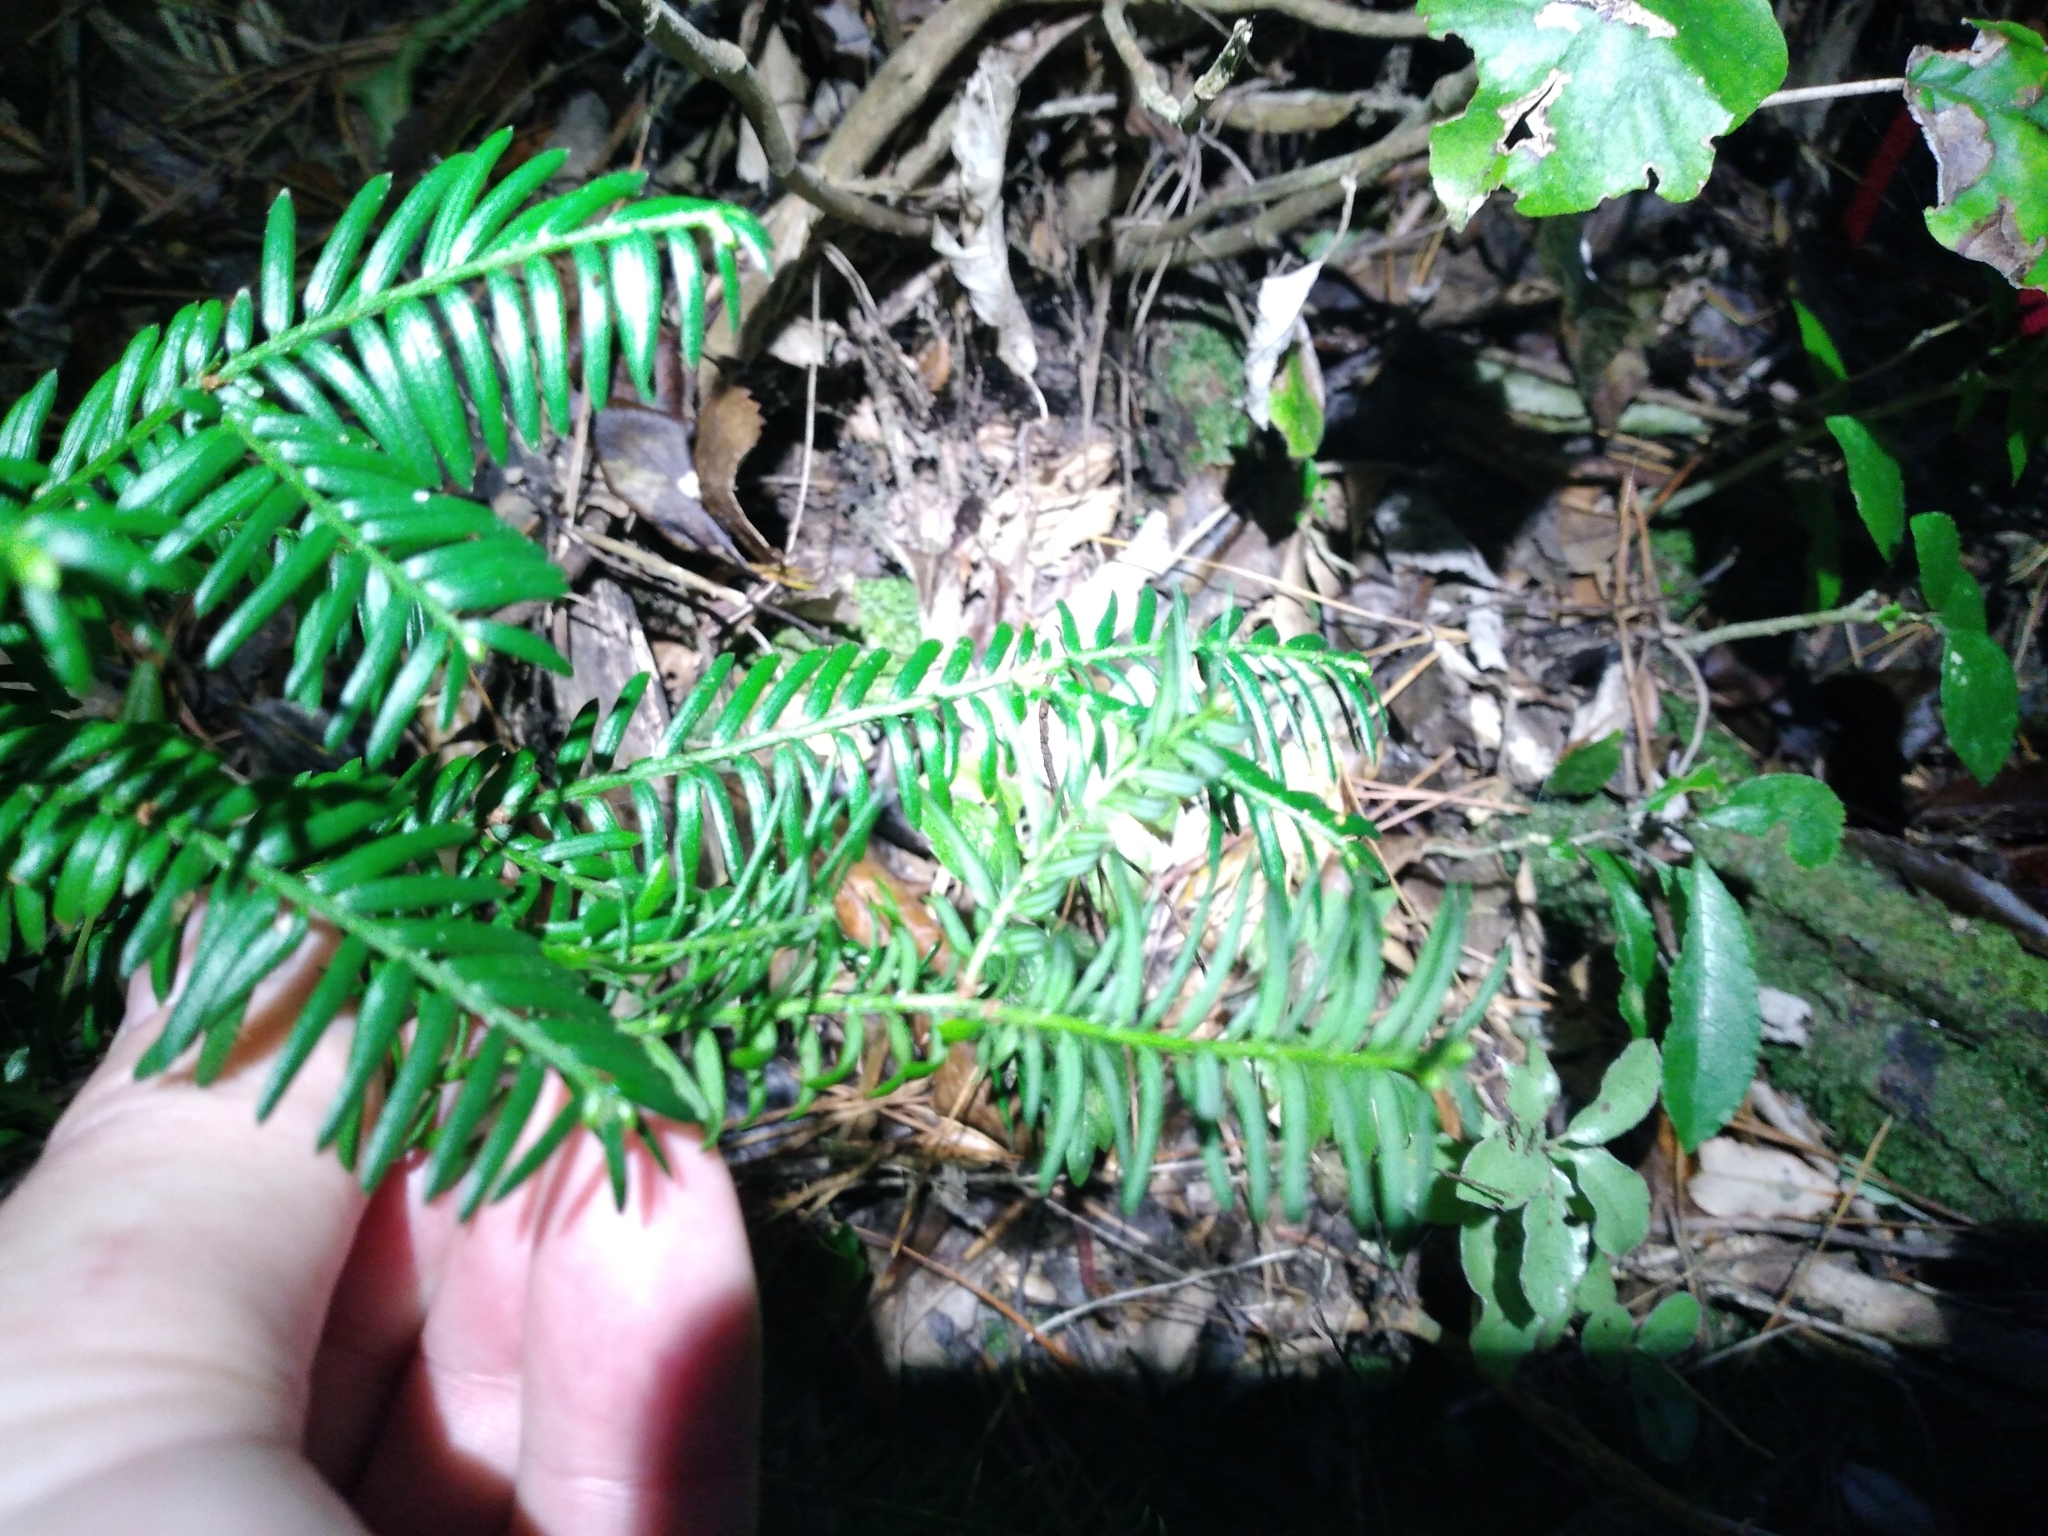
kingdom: Plantae
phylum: Tracheophyta
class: Pinopsida
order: Pinales
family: Taxaceae
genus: Taxus
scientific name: Taxus baccata
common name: Yew
